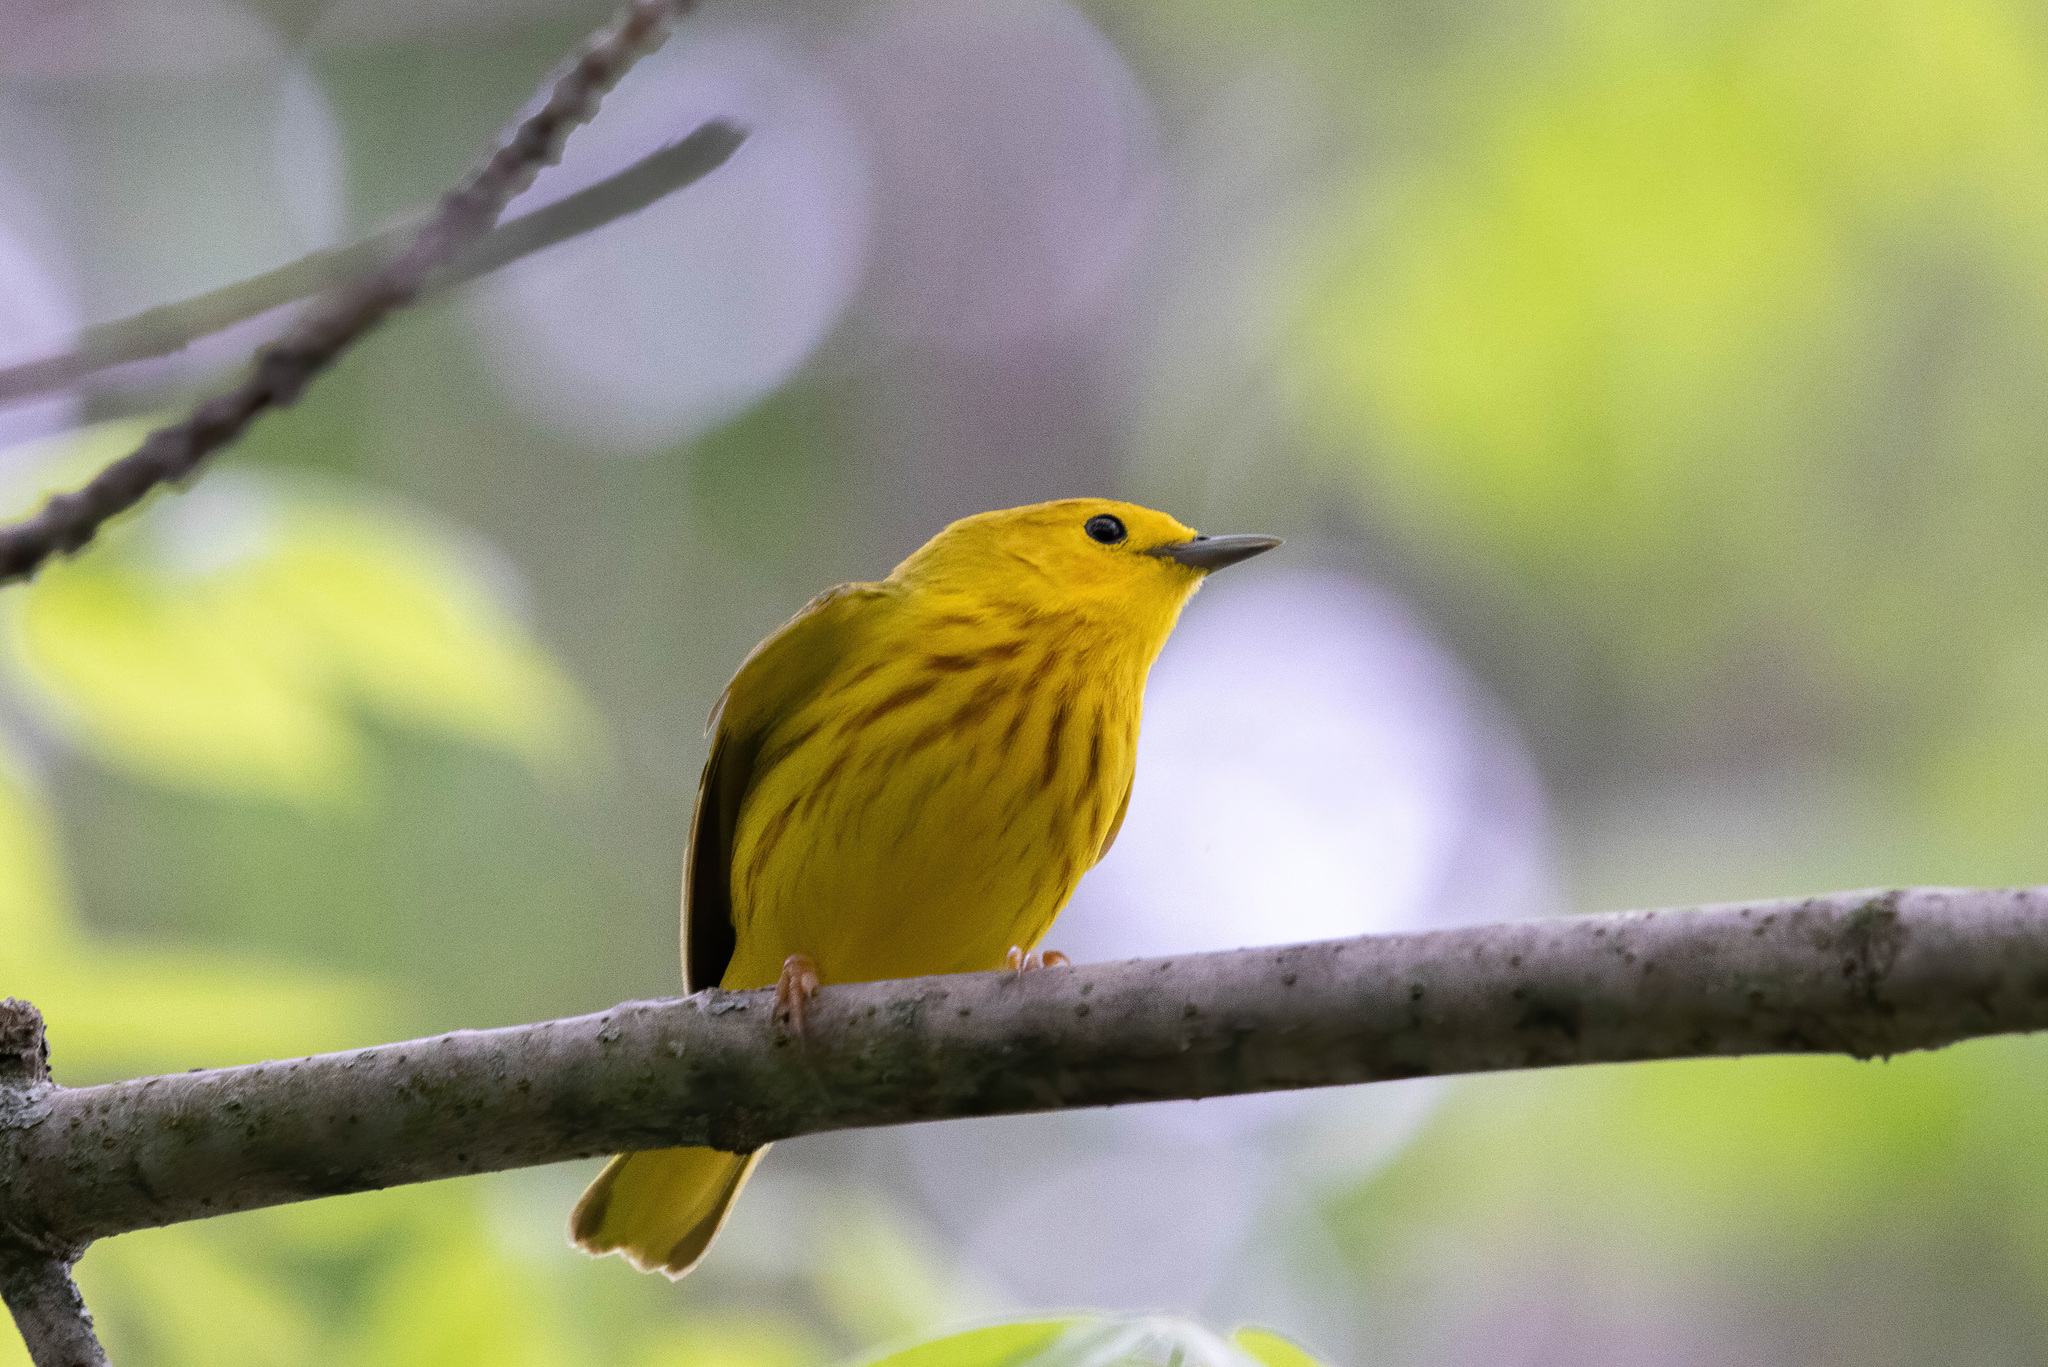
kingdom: Animalia
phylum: Chordata
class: Aves
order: Passeriformes
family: Parulidae
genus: Setophaga
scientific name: Setophaga petechia
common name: Yellow warbler
